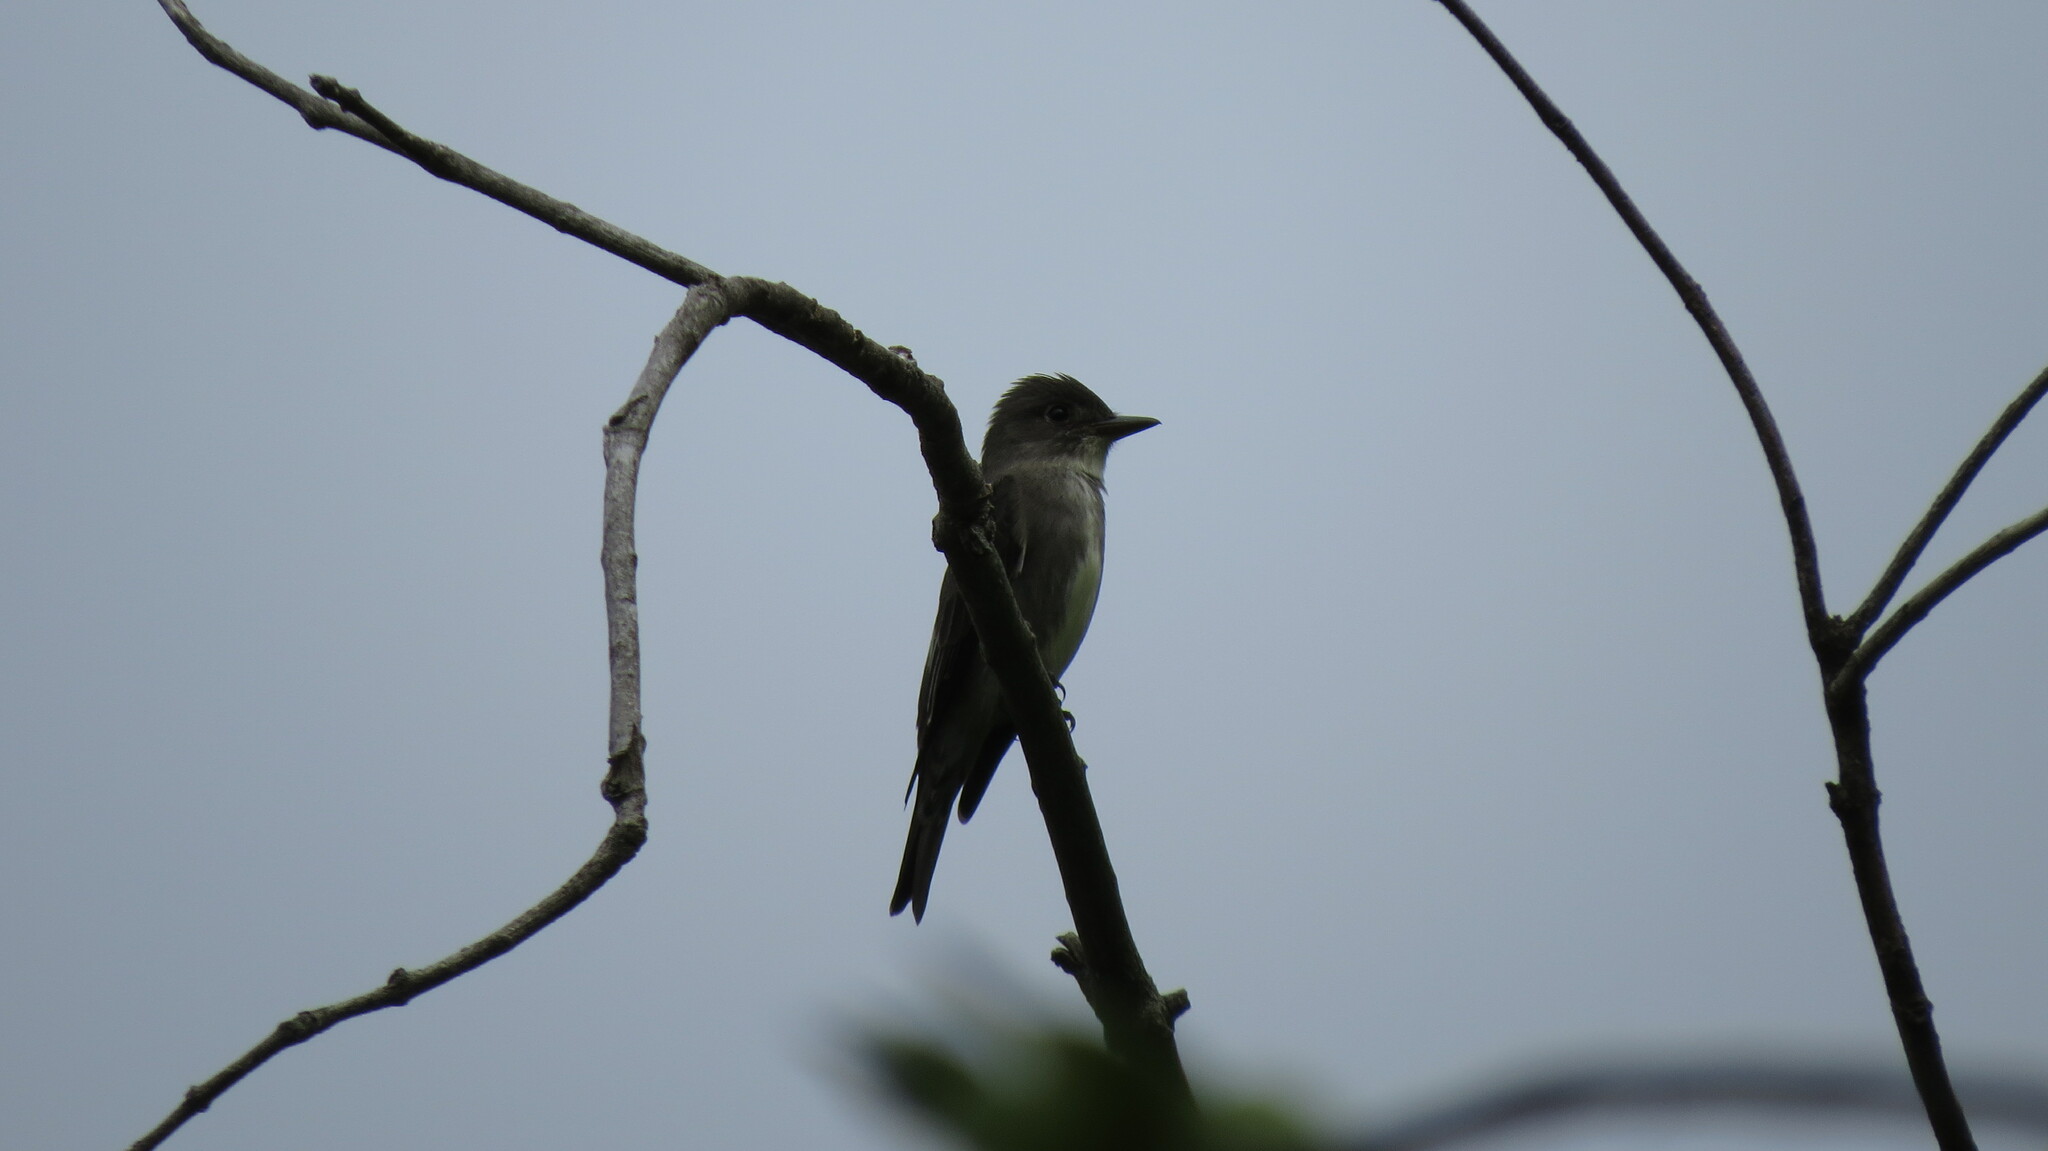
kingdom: Animalia
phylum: Chordata
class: Aves
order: Passeriformes
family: Tyrannidae
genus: Contopus
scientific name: Contopus cooperi
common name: Olive-sided flycatcher
